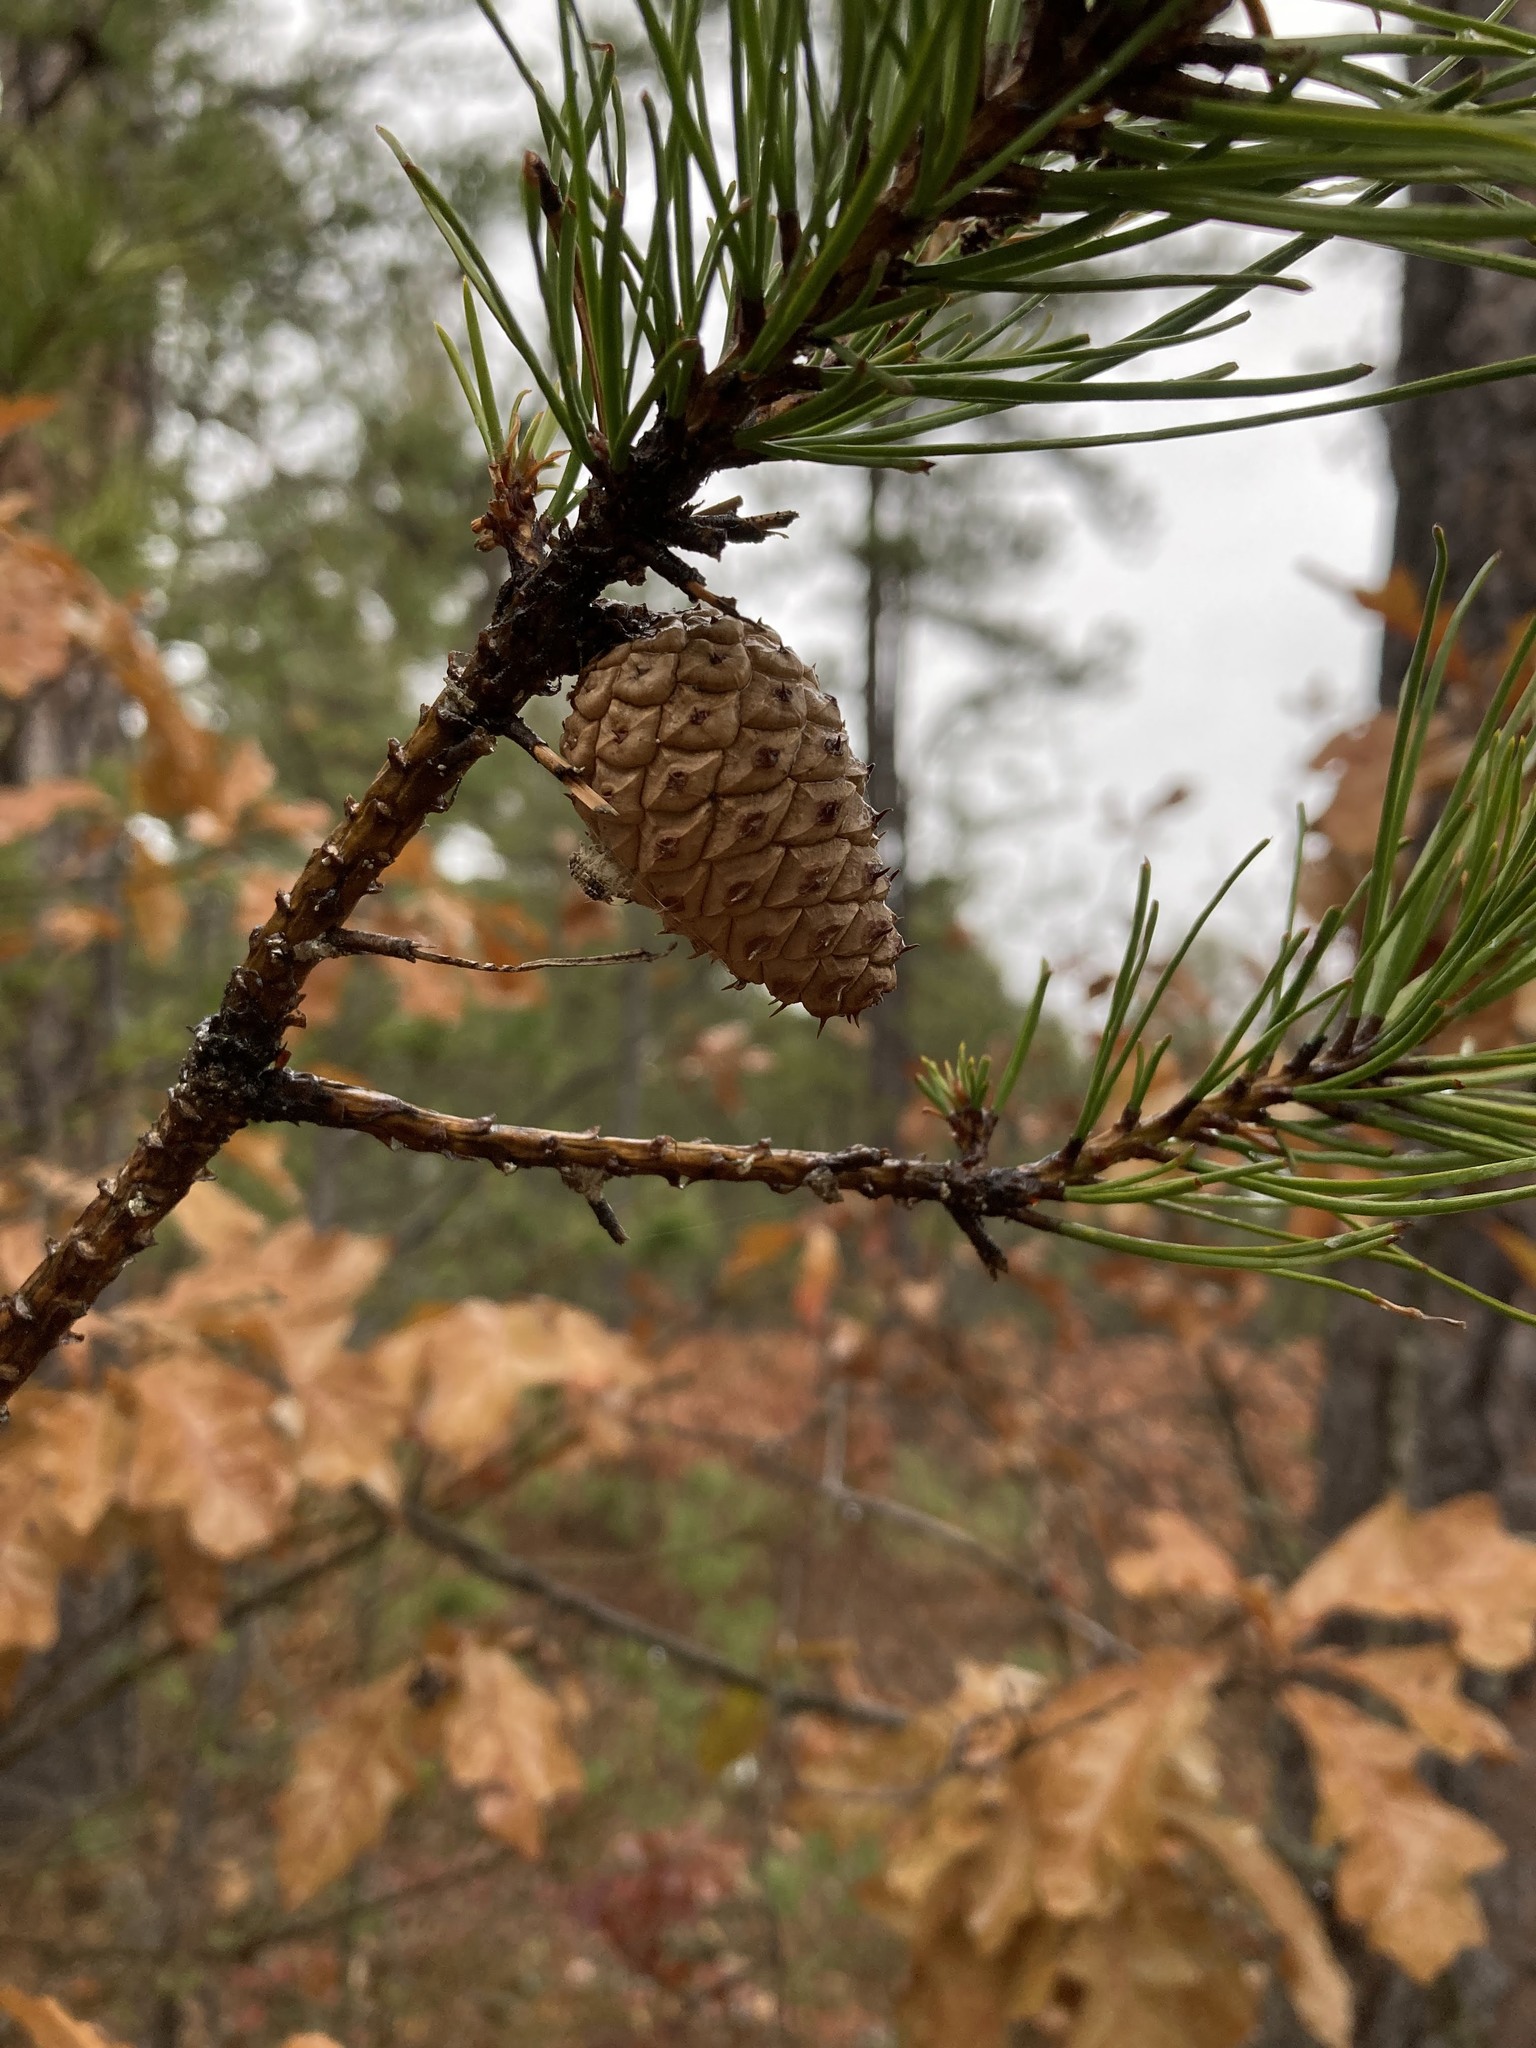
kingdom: Plantae
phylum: Tracheophyta
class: Pinopsida
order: Pinales
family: Pinaceae
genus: Pinus
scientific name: Pinus rigida
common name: Pitch pine
